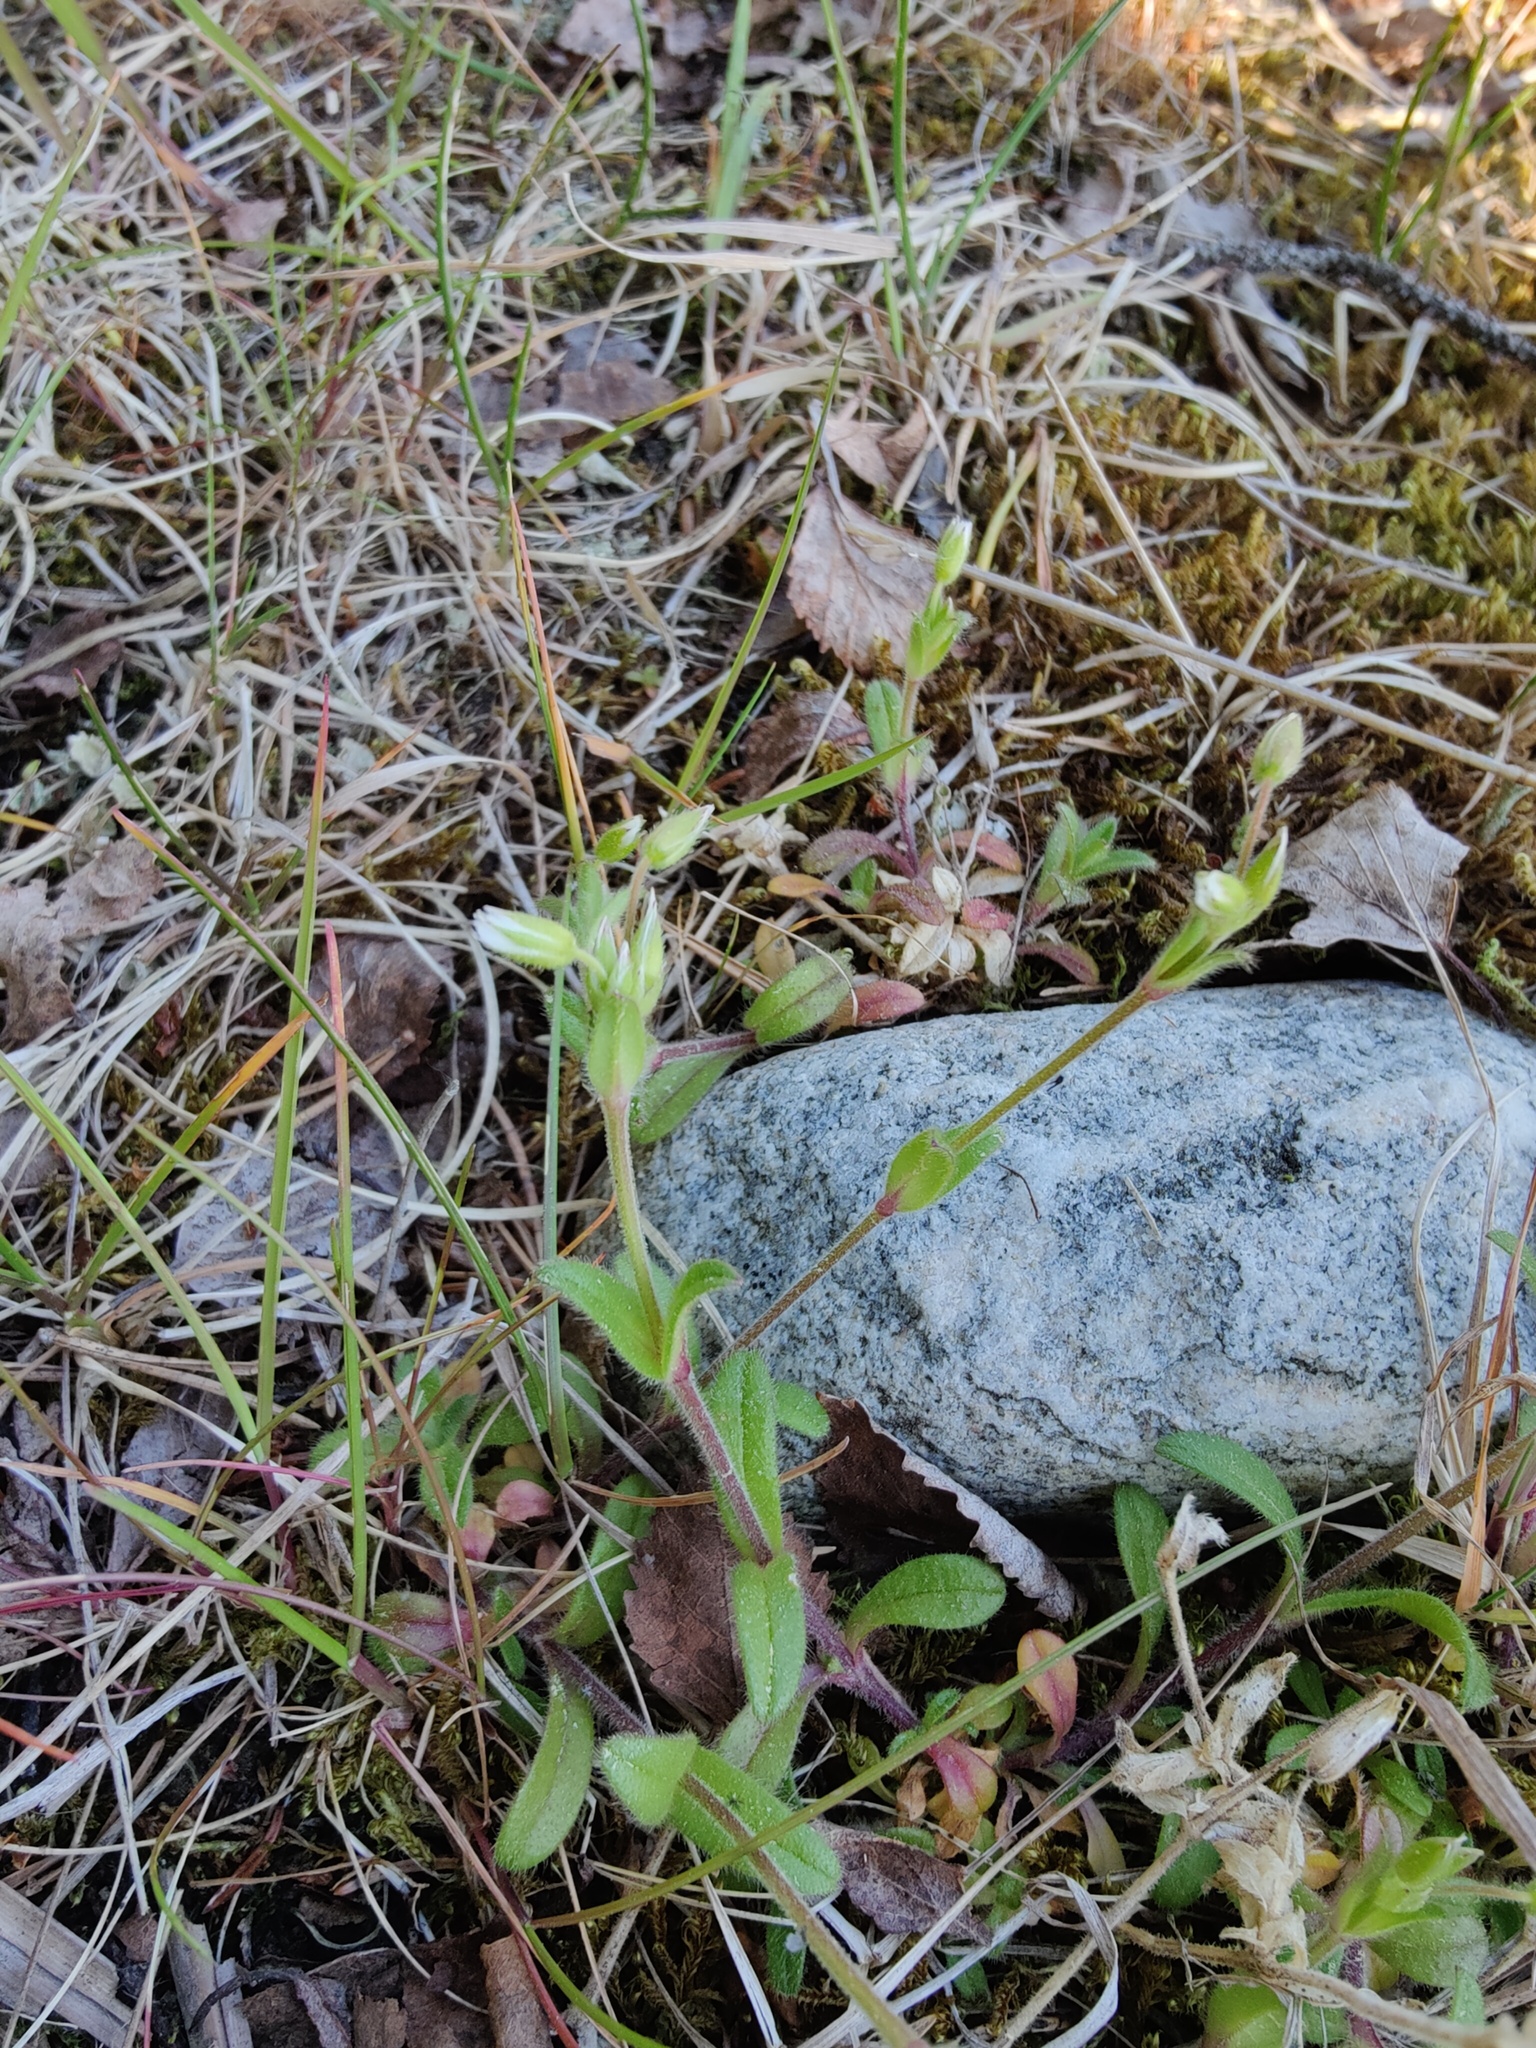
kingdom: Plantae
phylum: Tracheophyta
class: Magnoliopsida
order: Caryophyllales
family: Caryophyllaceae
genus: Cerastium
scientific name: Cerastium holosteoides
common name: Big chickweed
